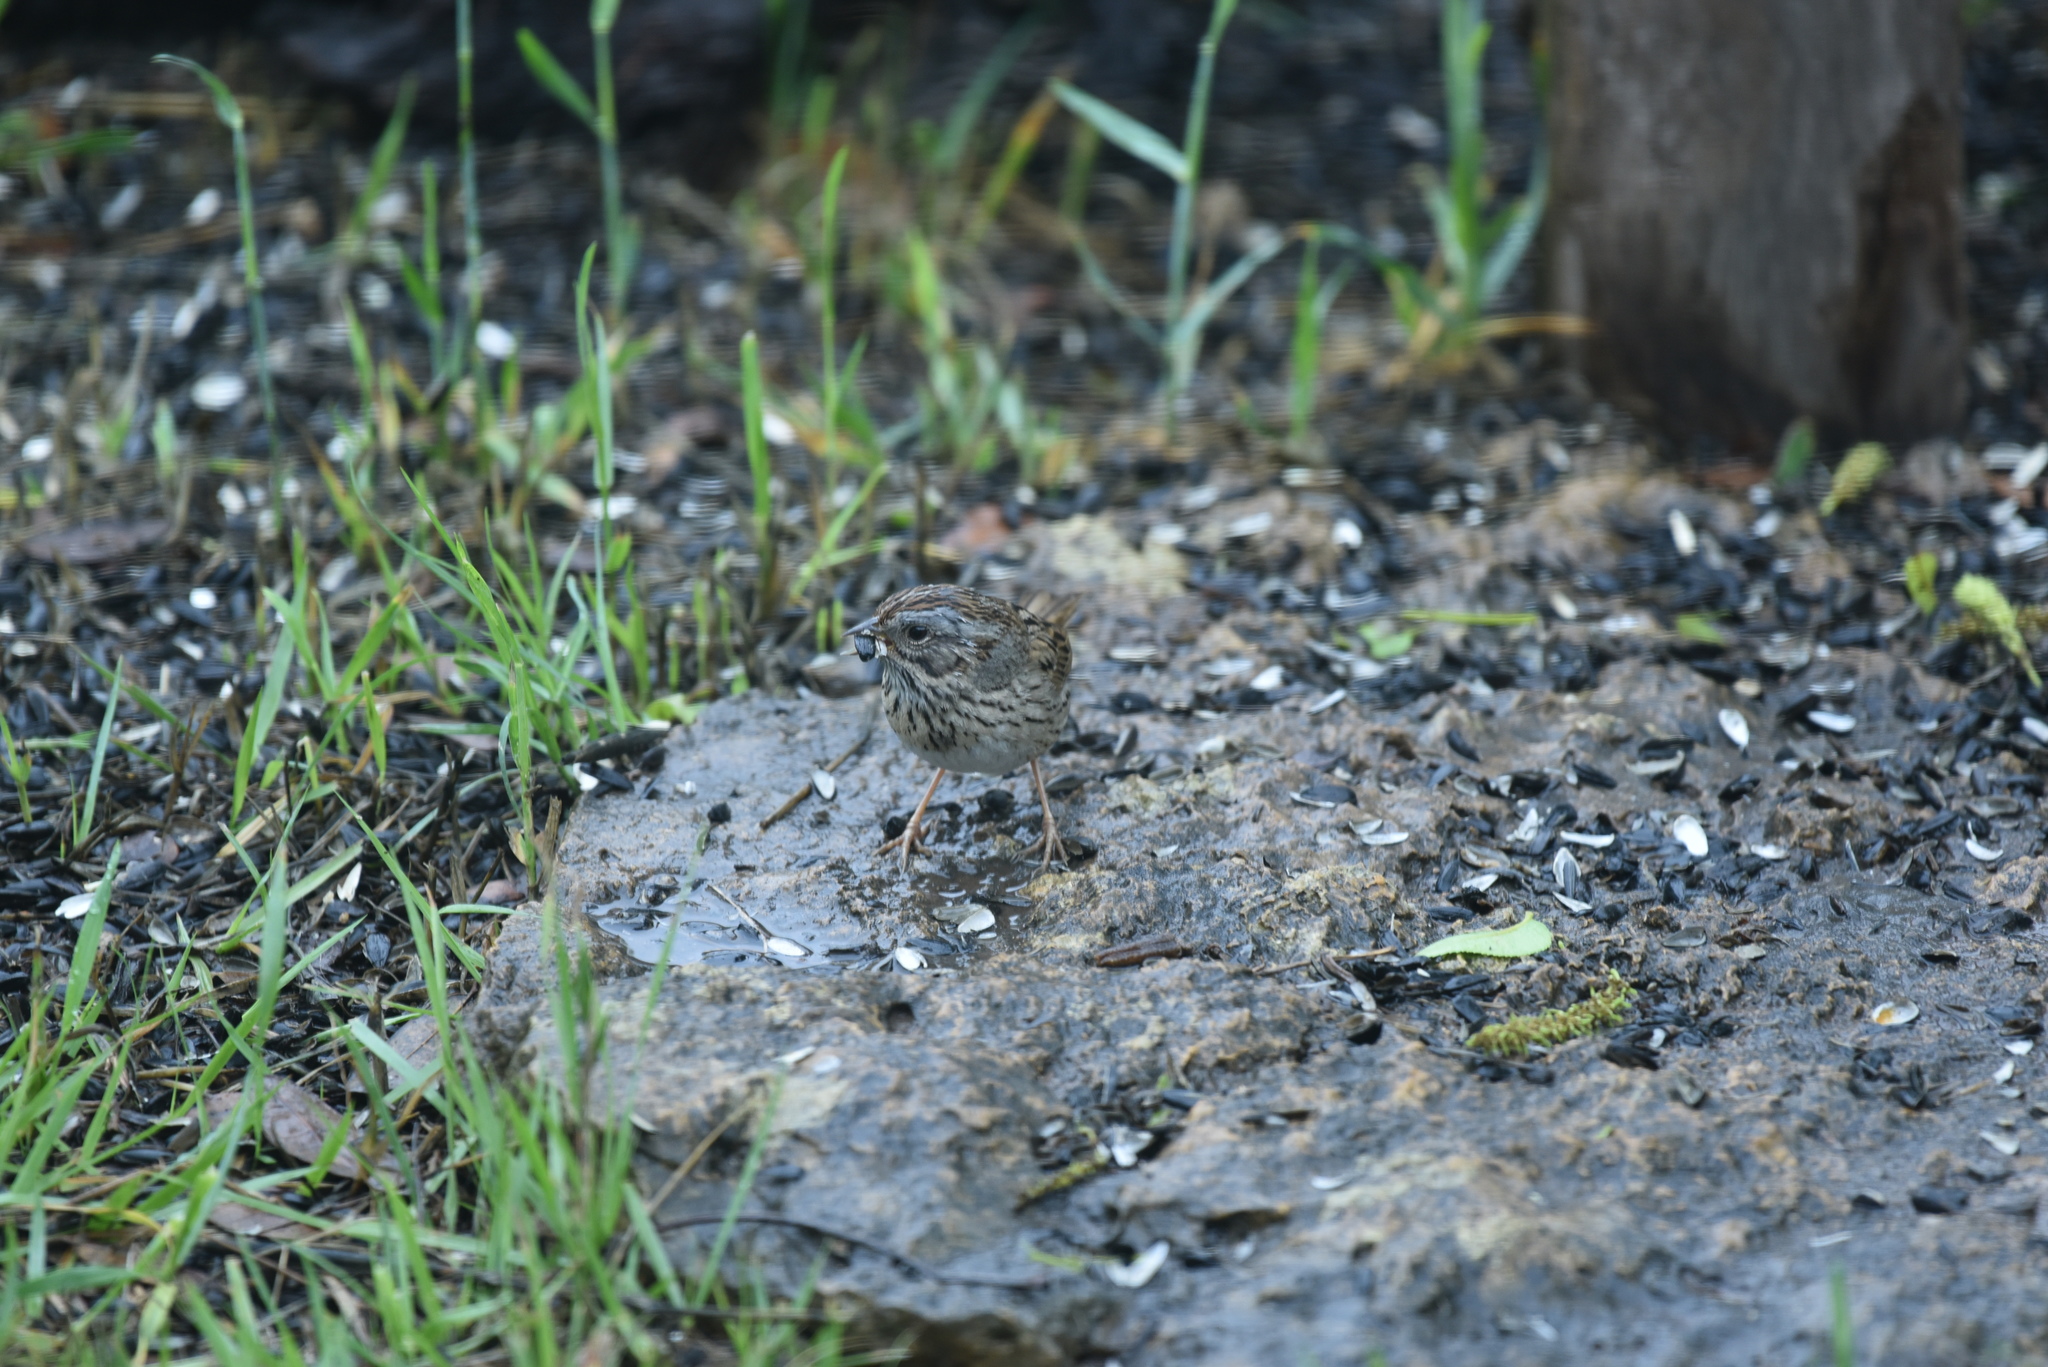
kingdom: Animalia
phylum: Chordata
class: Aves
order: Passeriformes
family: Passerellidae
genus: Melospiza
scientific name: Melospiza lincolnii
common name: Lincoln's sparrow
